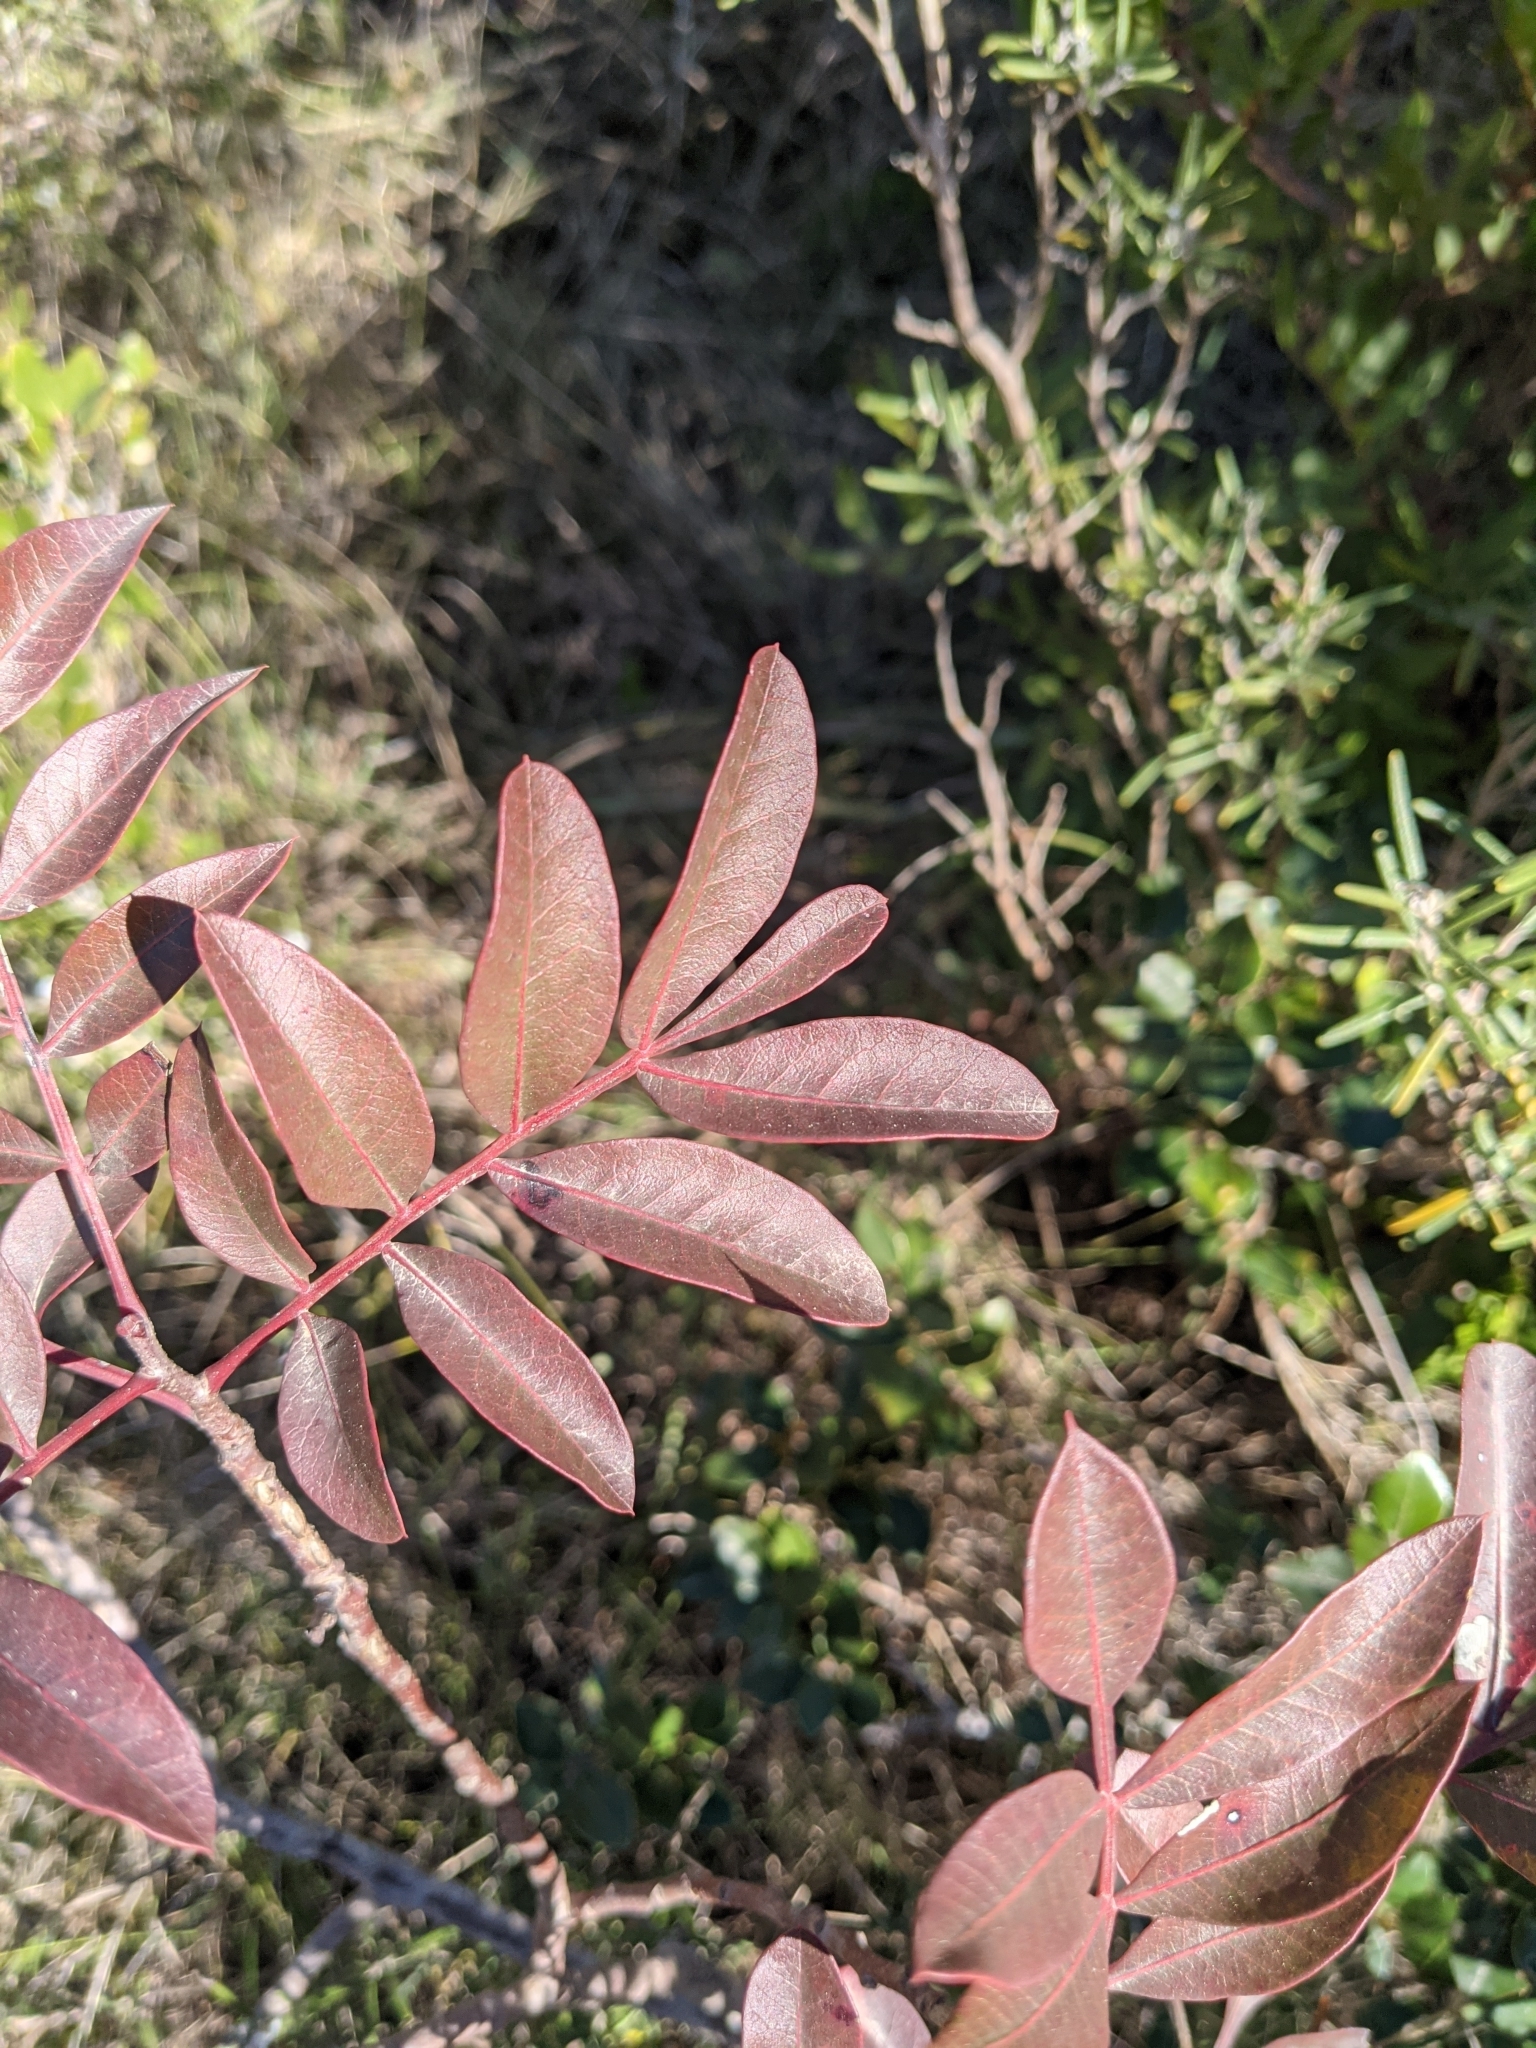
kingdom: Plantae
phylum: Tracheophyta
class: Magnoliopsida
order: Sapindales
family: Anacardiaceae
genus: Pistacia
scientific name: Pistacia saportae
